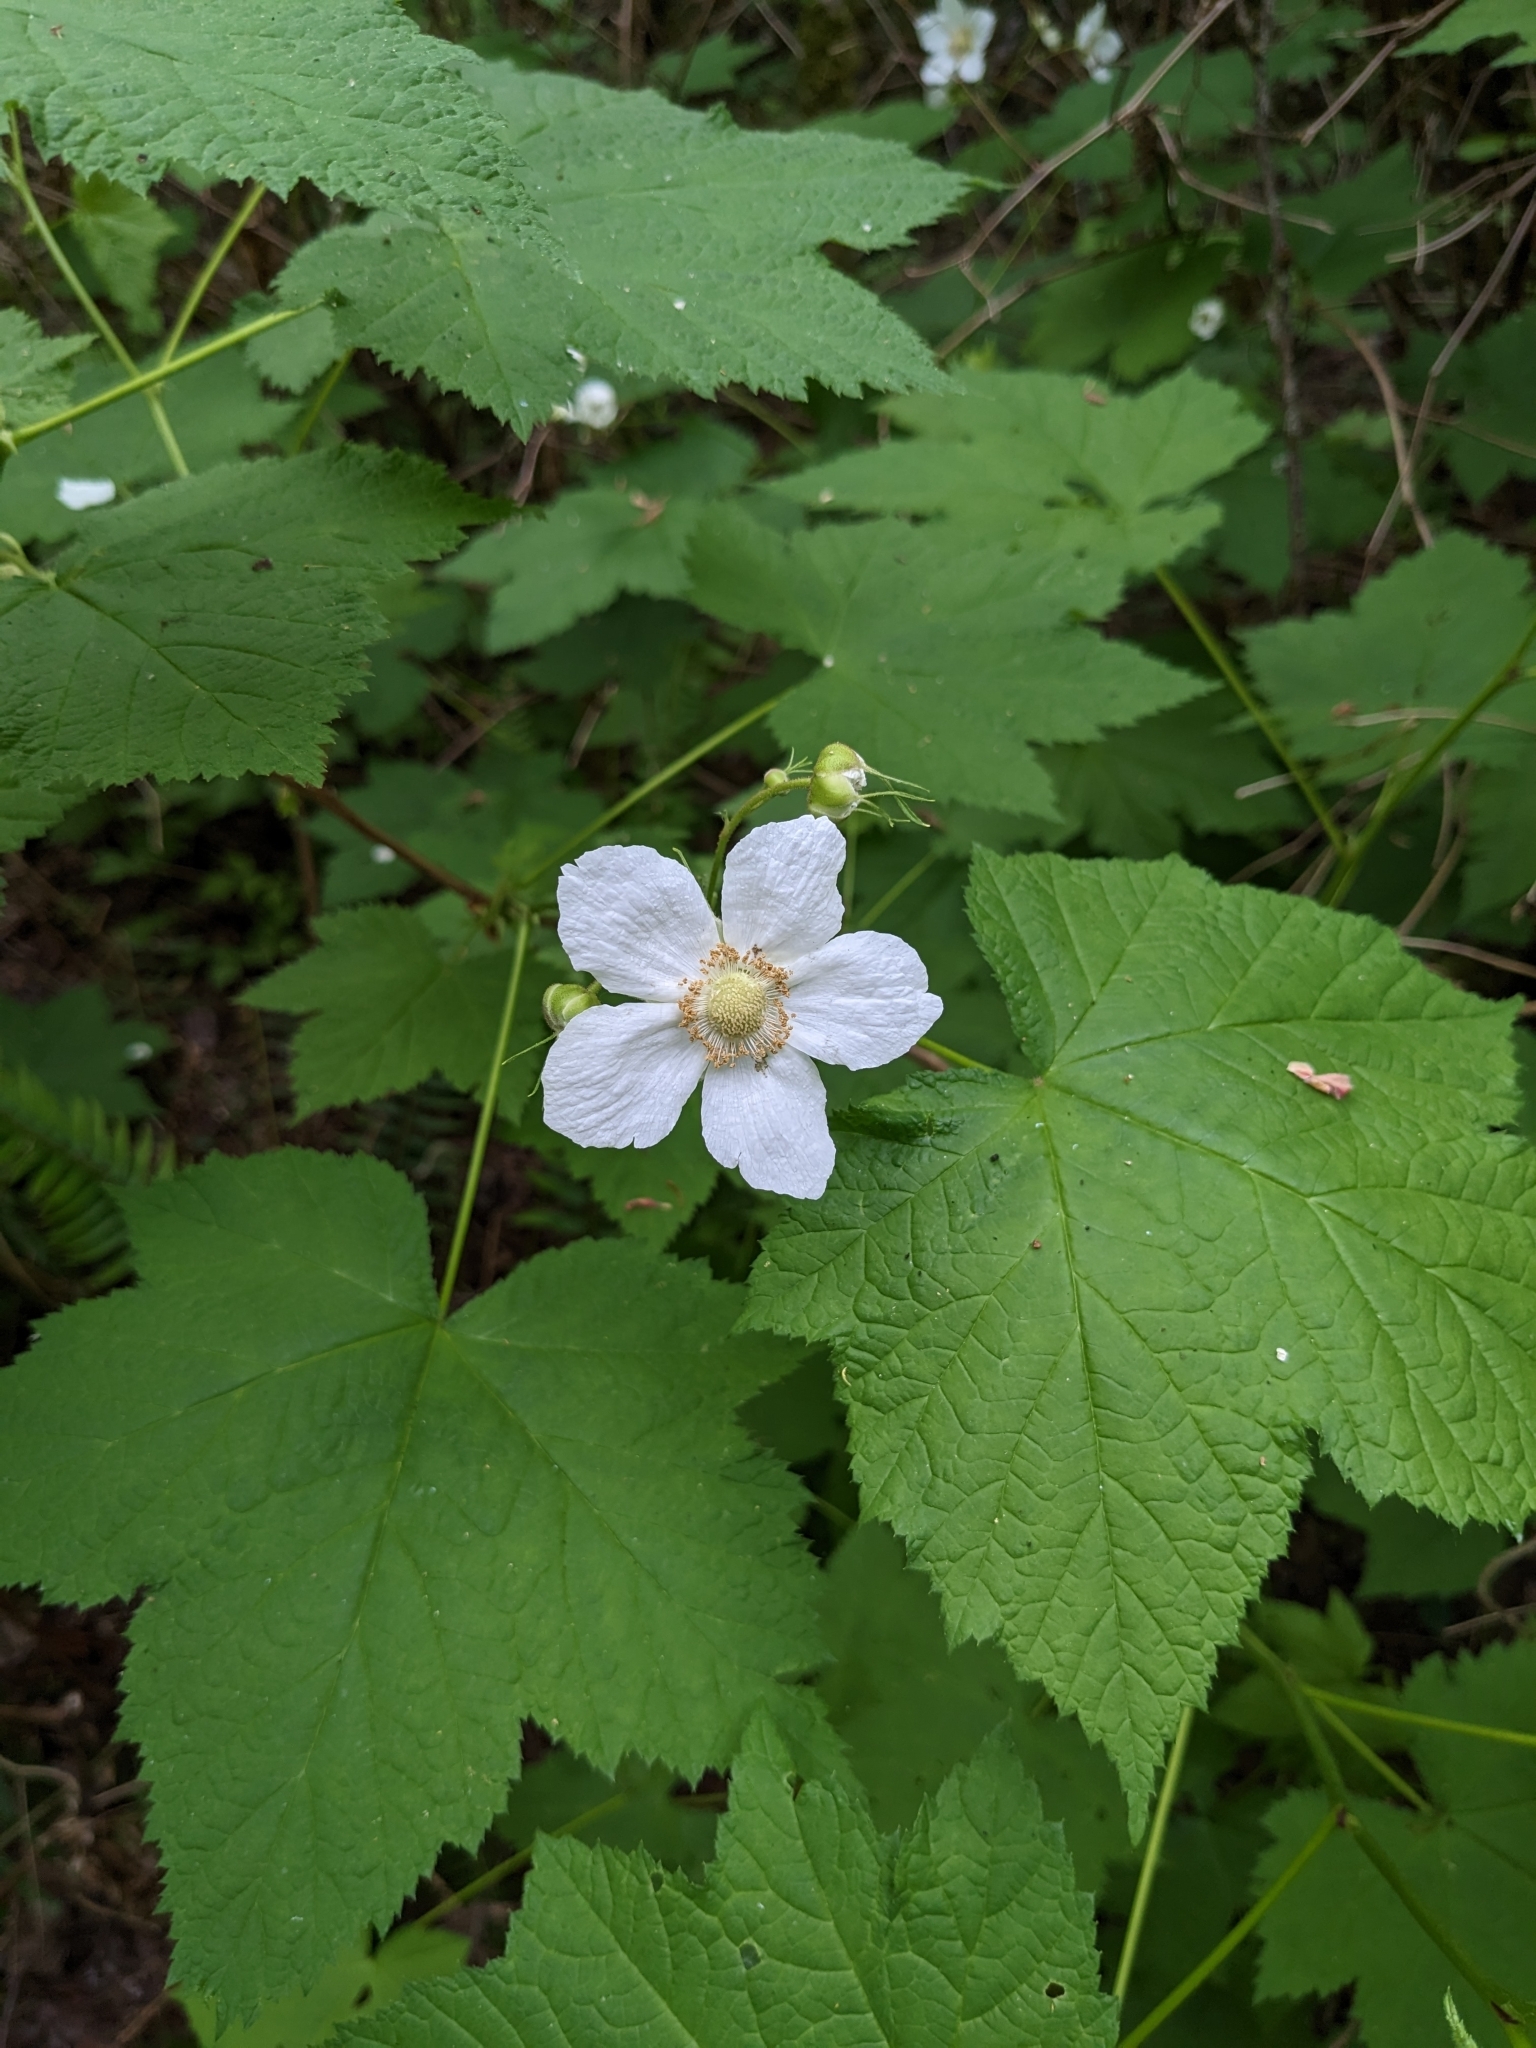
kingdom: Plantae
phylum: Tracheophyta
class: Magnoliopsida
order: Rosales
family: Rosaceae
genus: Rubus
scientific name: Rubus parviflorus
